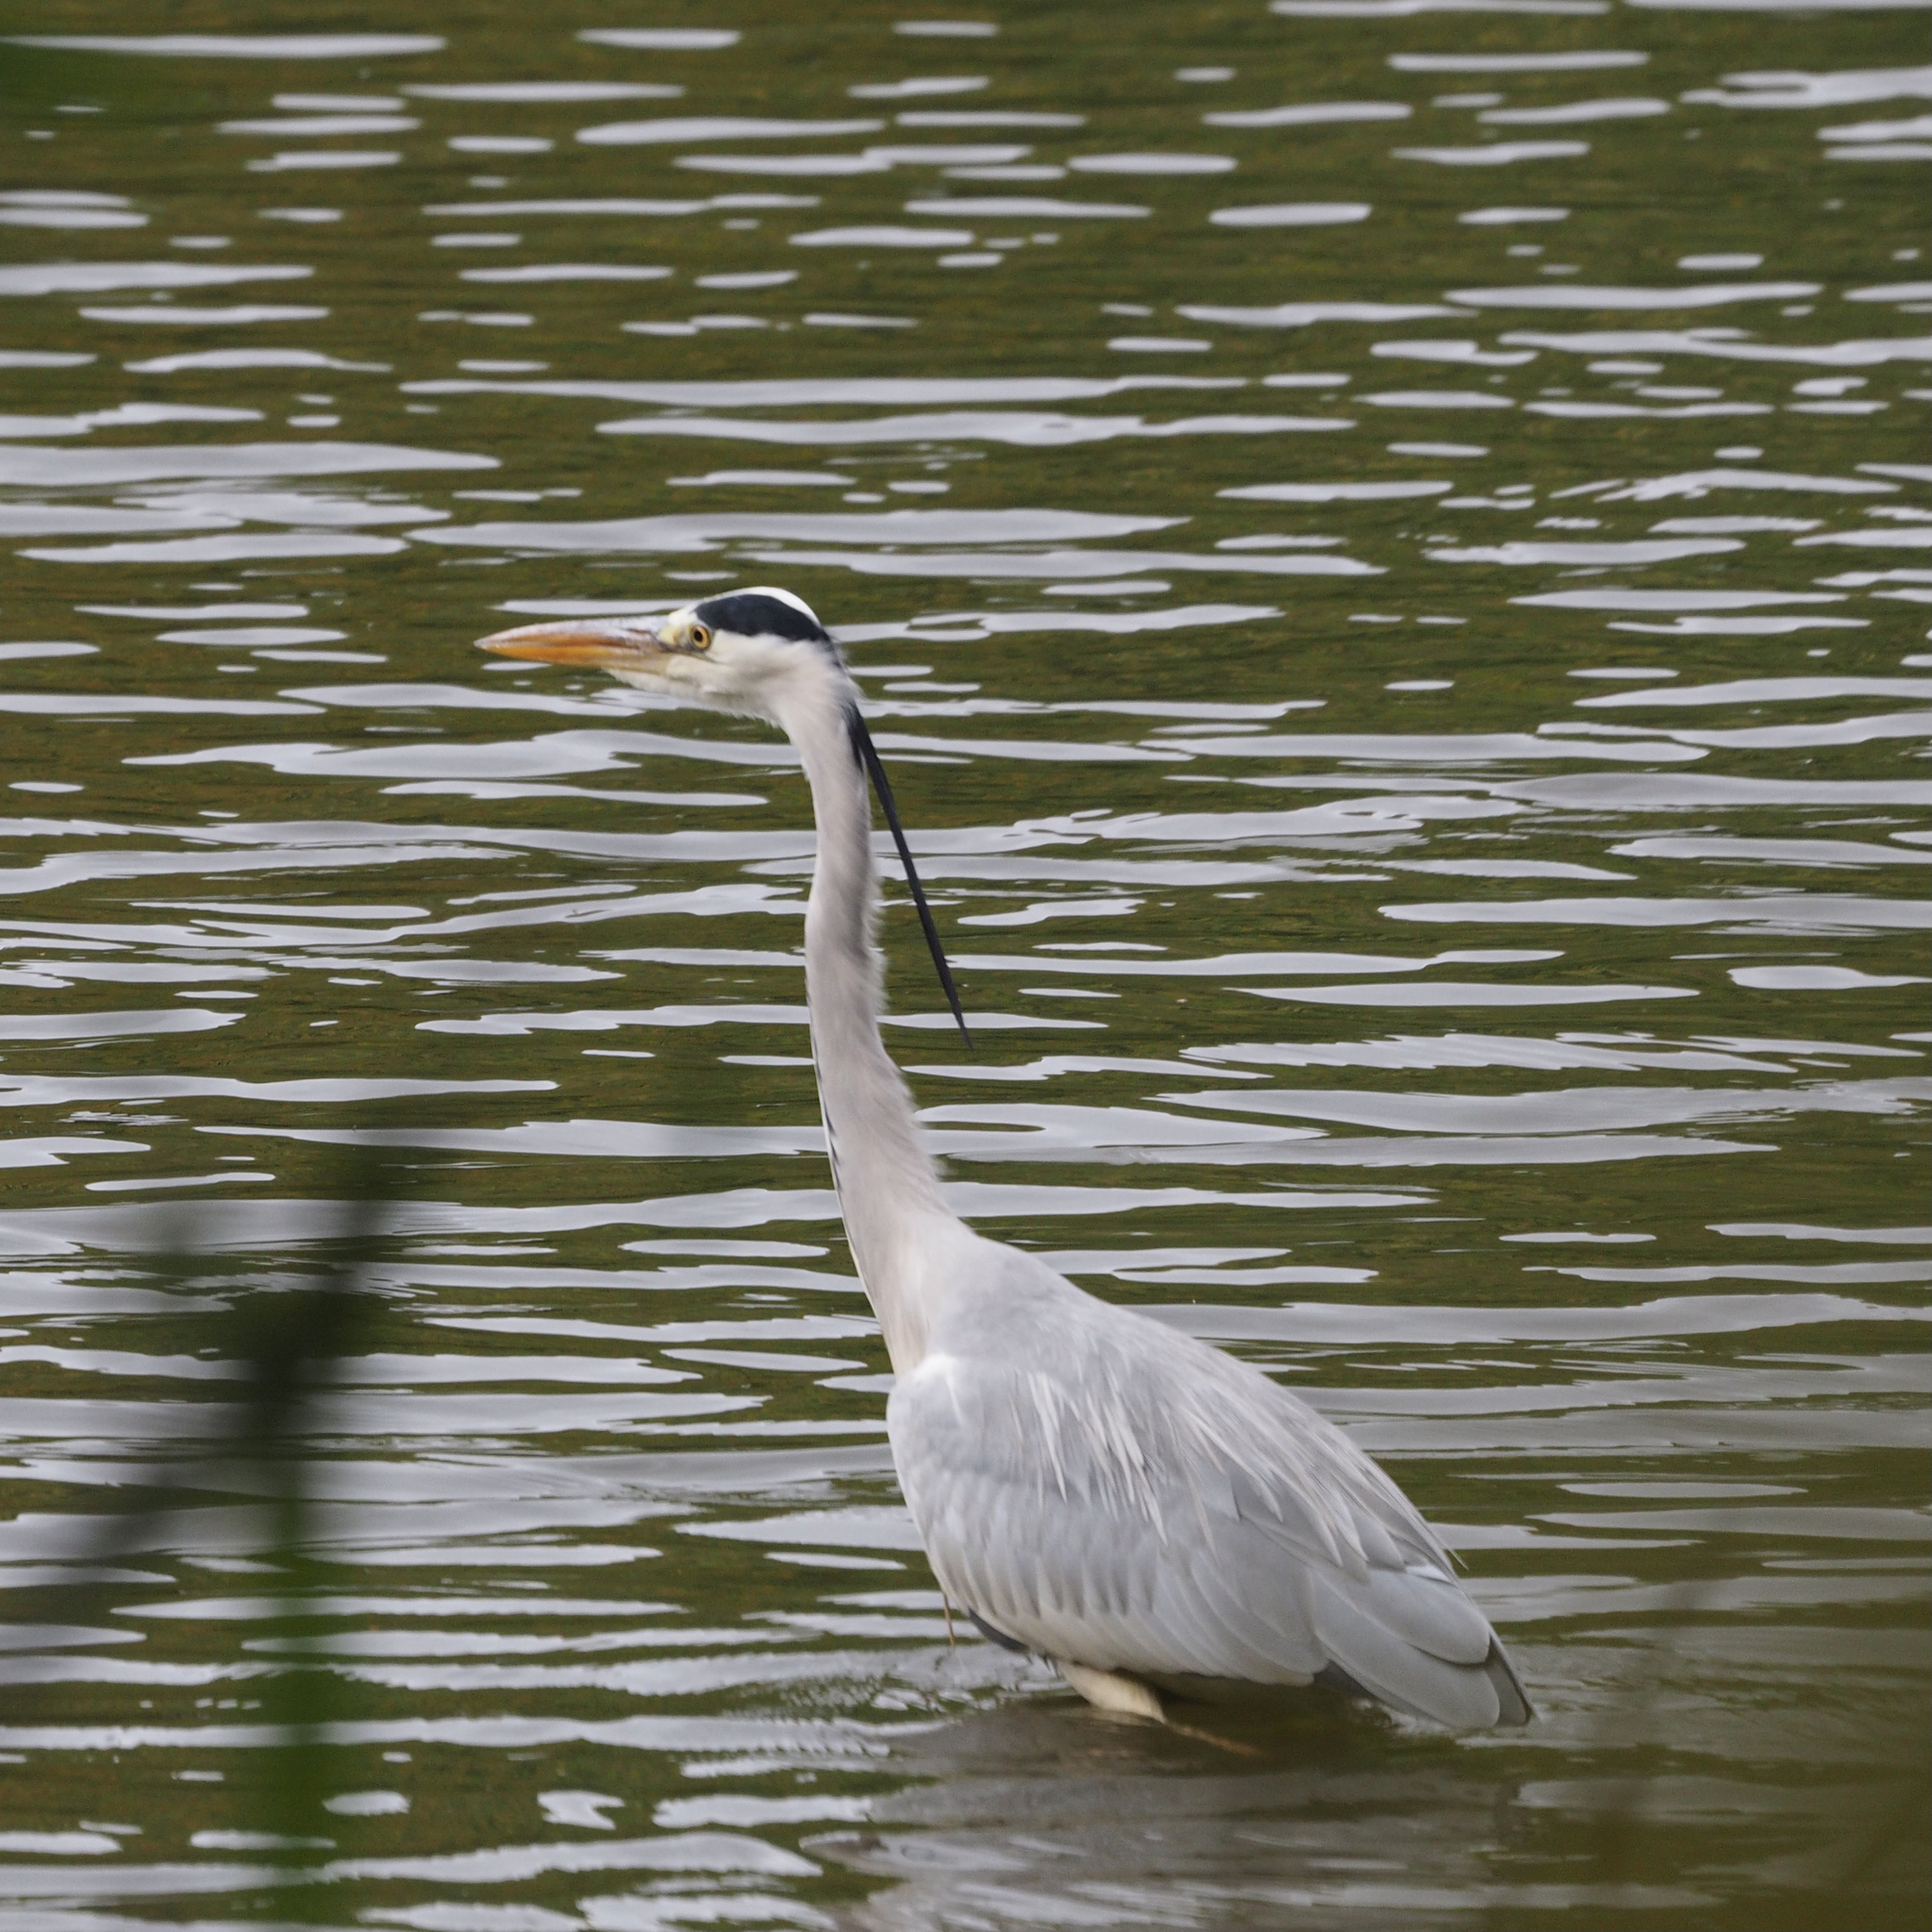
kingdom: Animalia
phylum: Chordata
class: Aves
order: Pelecaniformes
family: Ardeidae
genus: Ardea
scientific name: Ardea cinerea
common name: Grey heron
